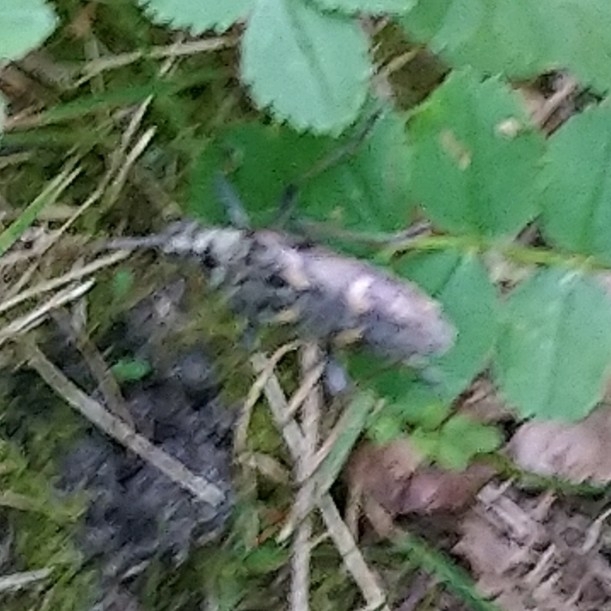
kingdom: Animalia
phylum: Arthropoda
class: Insecta
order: Coleoptera
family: Cerambycidae
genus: Rhagium
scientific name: Rhagium bifasciatum
